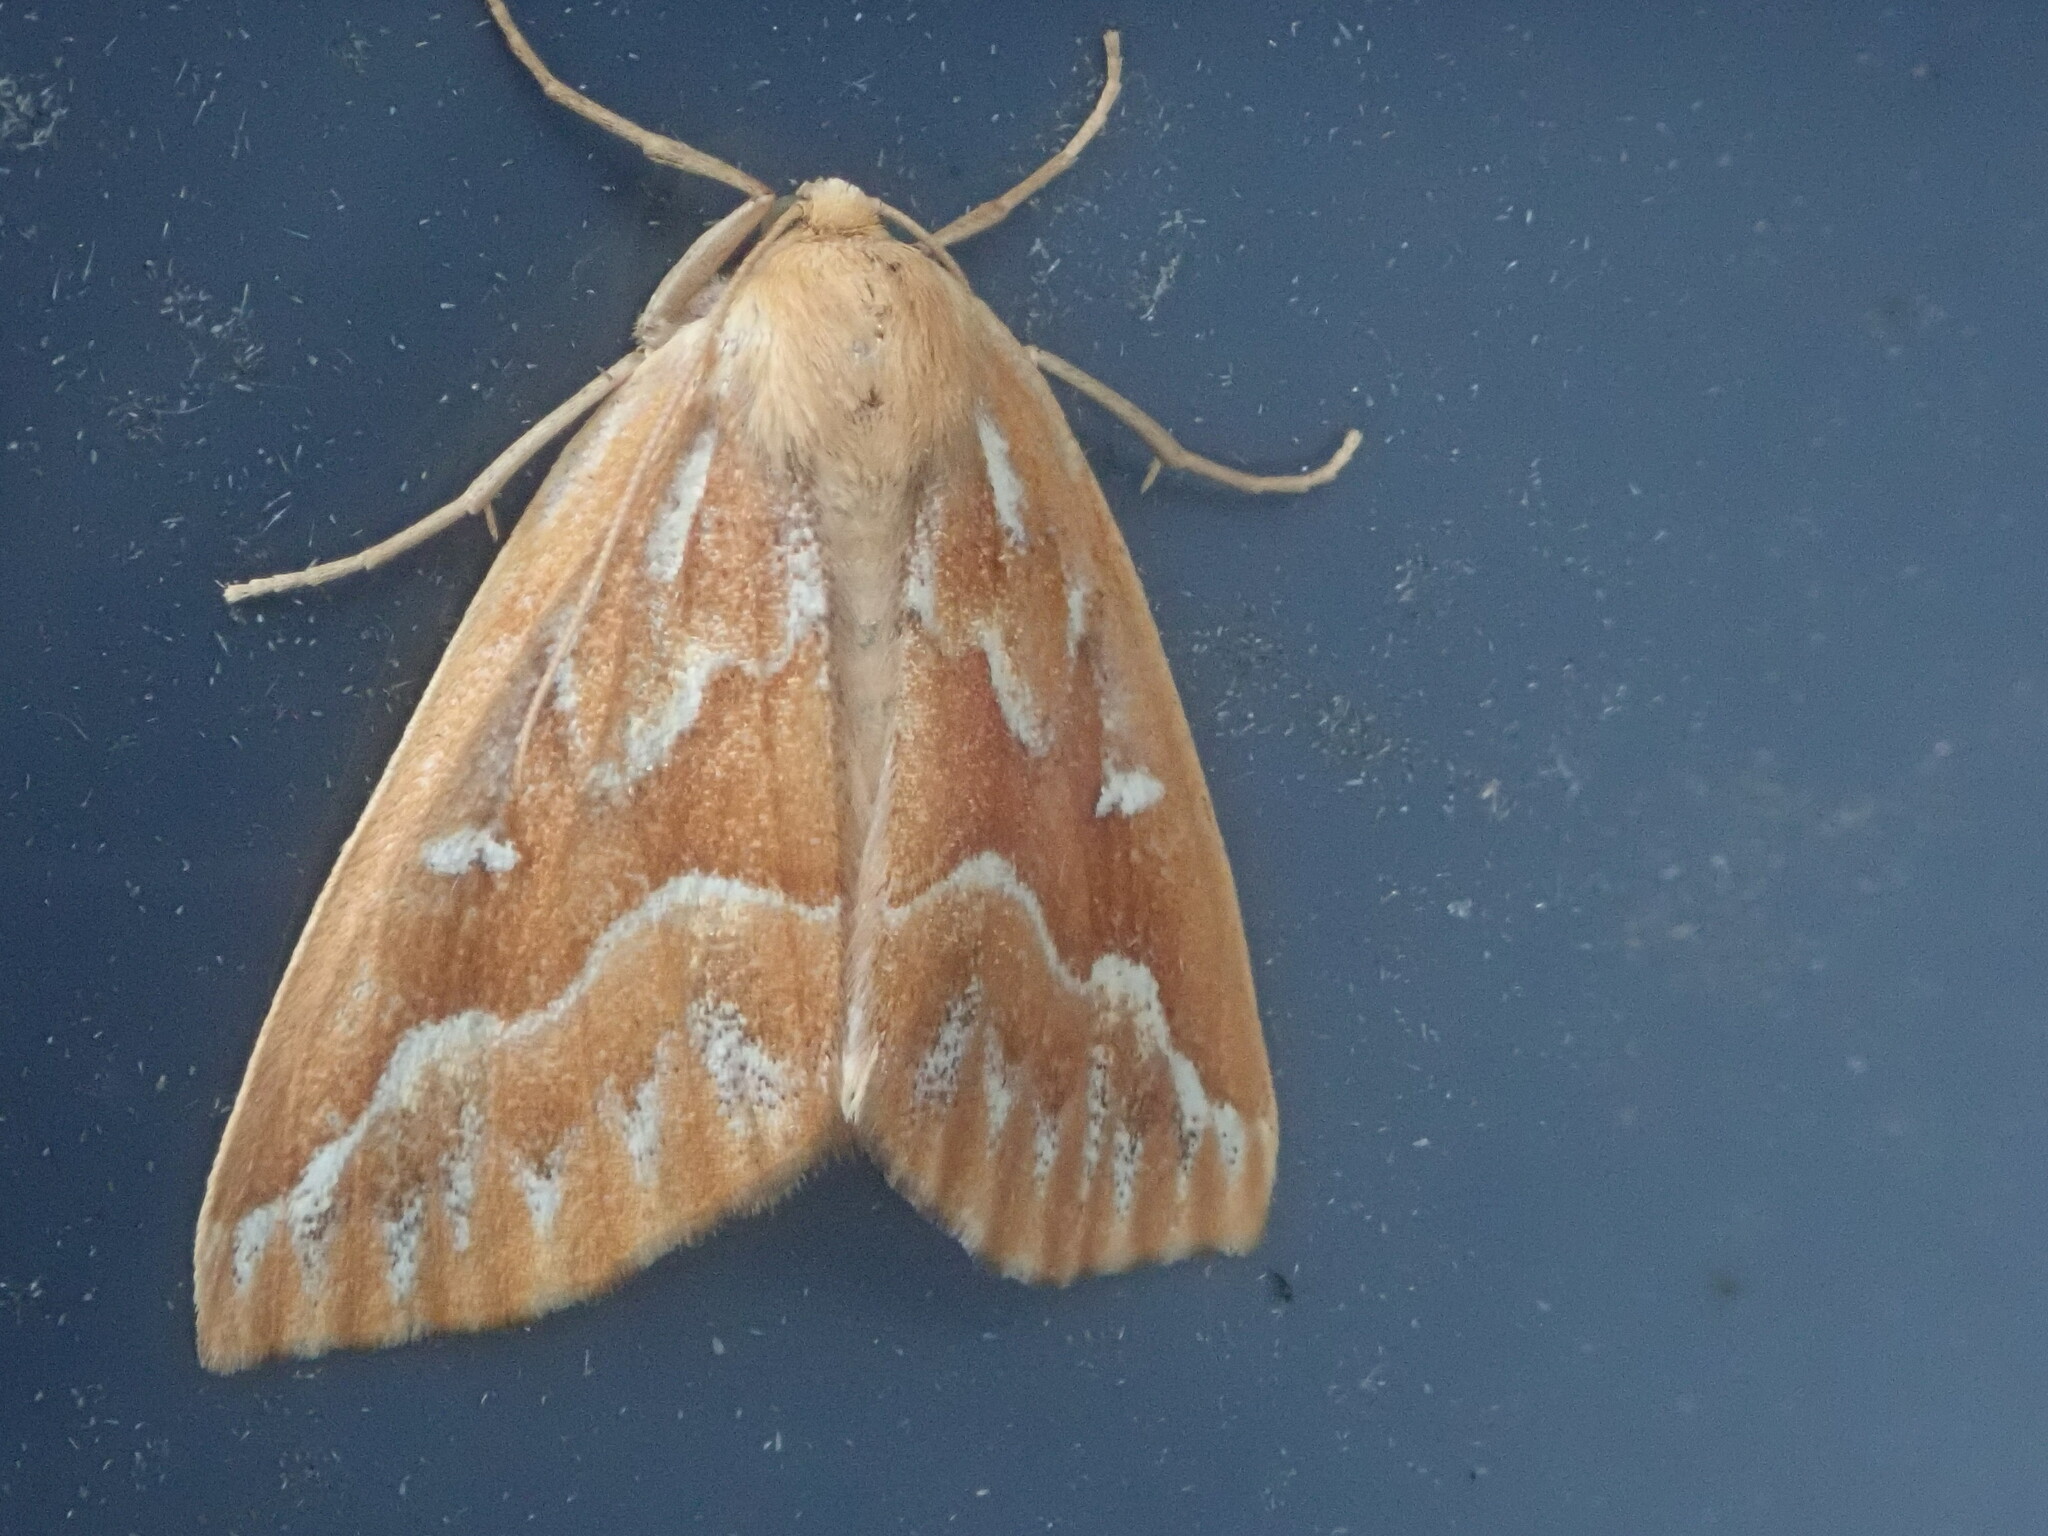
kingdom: Animalia
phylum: Arthropoda
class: Insecta
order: Lepidoptera
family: Geometridae
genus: Caripeta
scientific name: Caripeta piniata
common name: Northern pine looper moth
